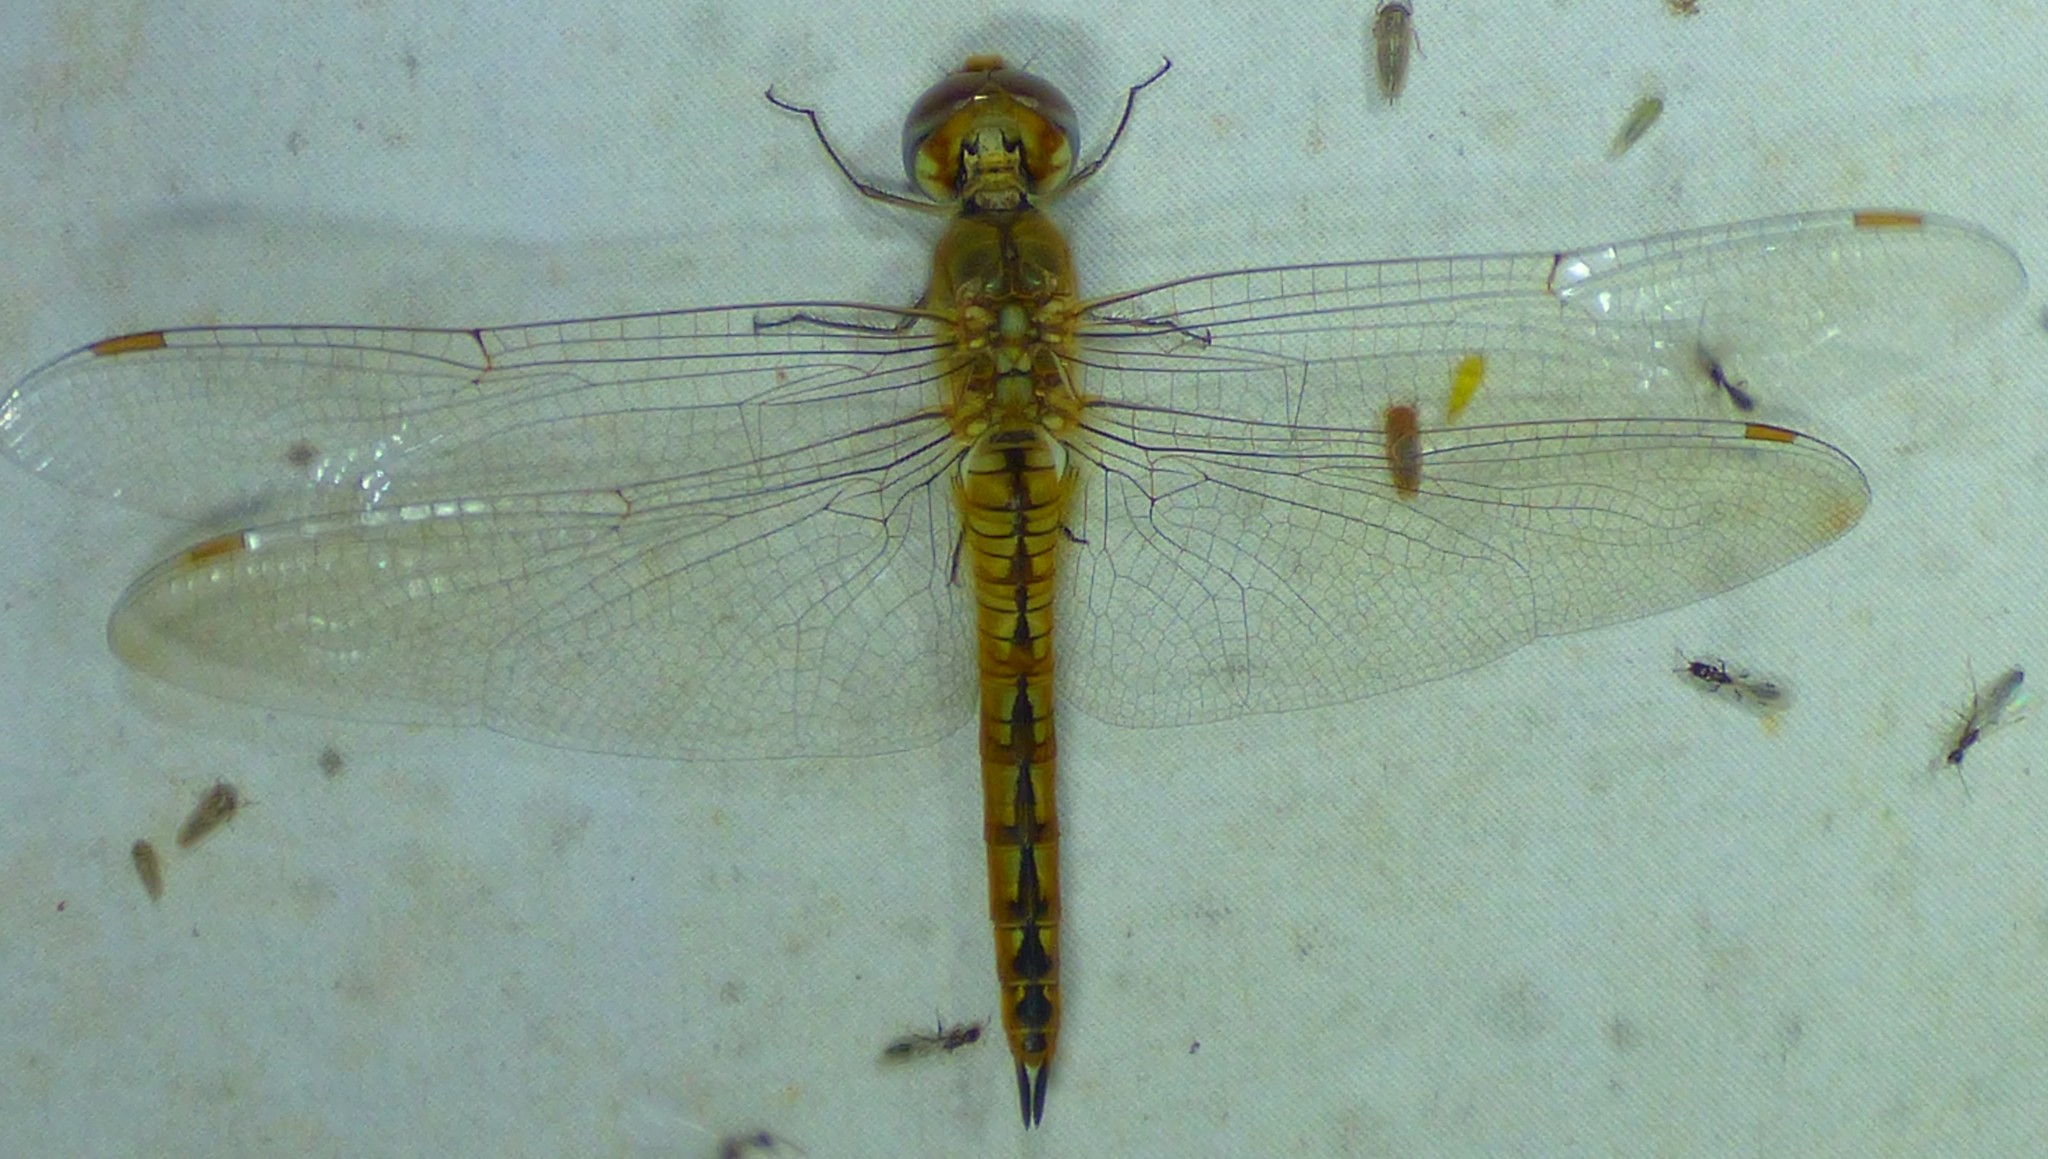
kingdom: Animalia
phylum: Arthropoda
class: Insecta
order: Odonata
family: Libellulidae
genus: Pantala
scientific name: Pantala flavescens
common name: Wandering glider
